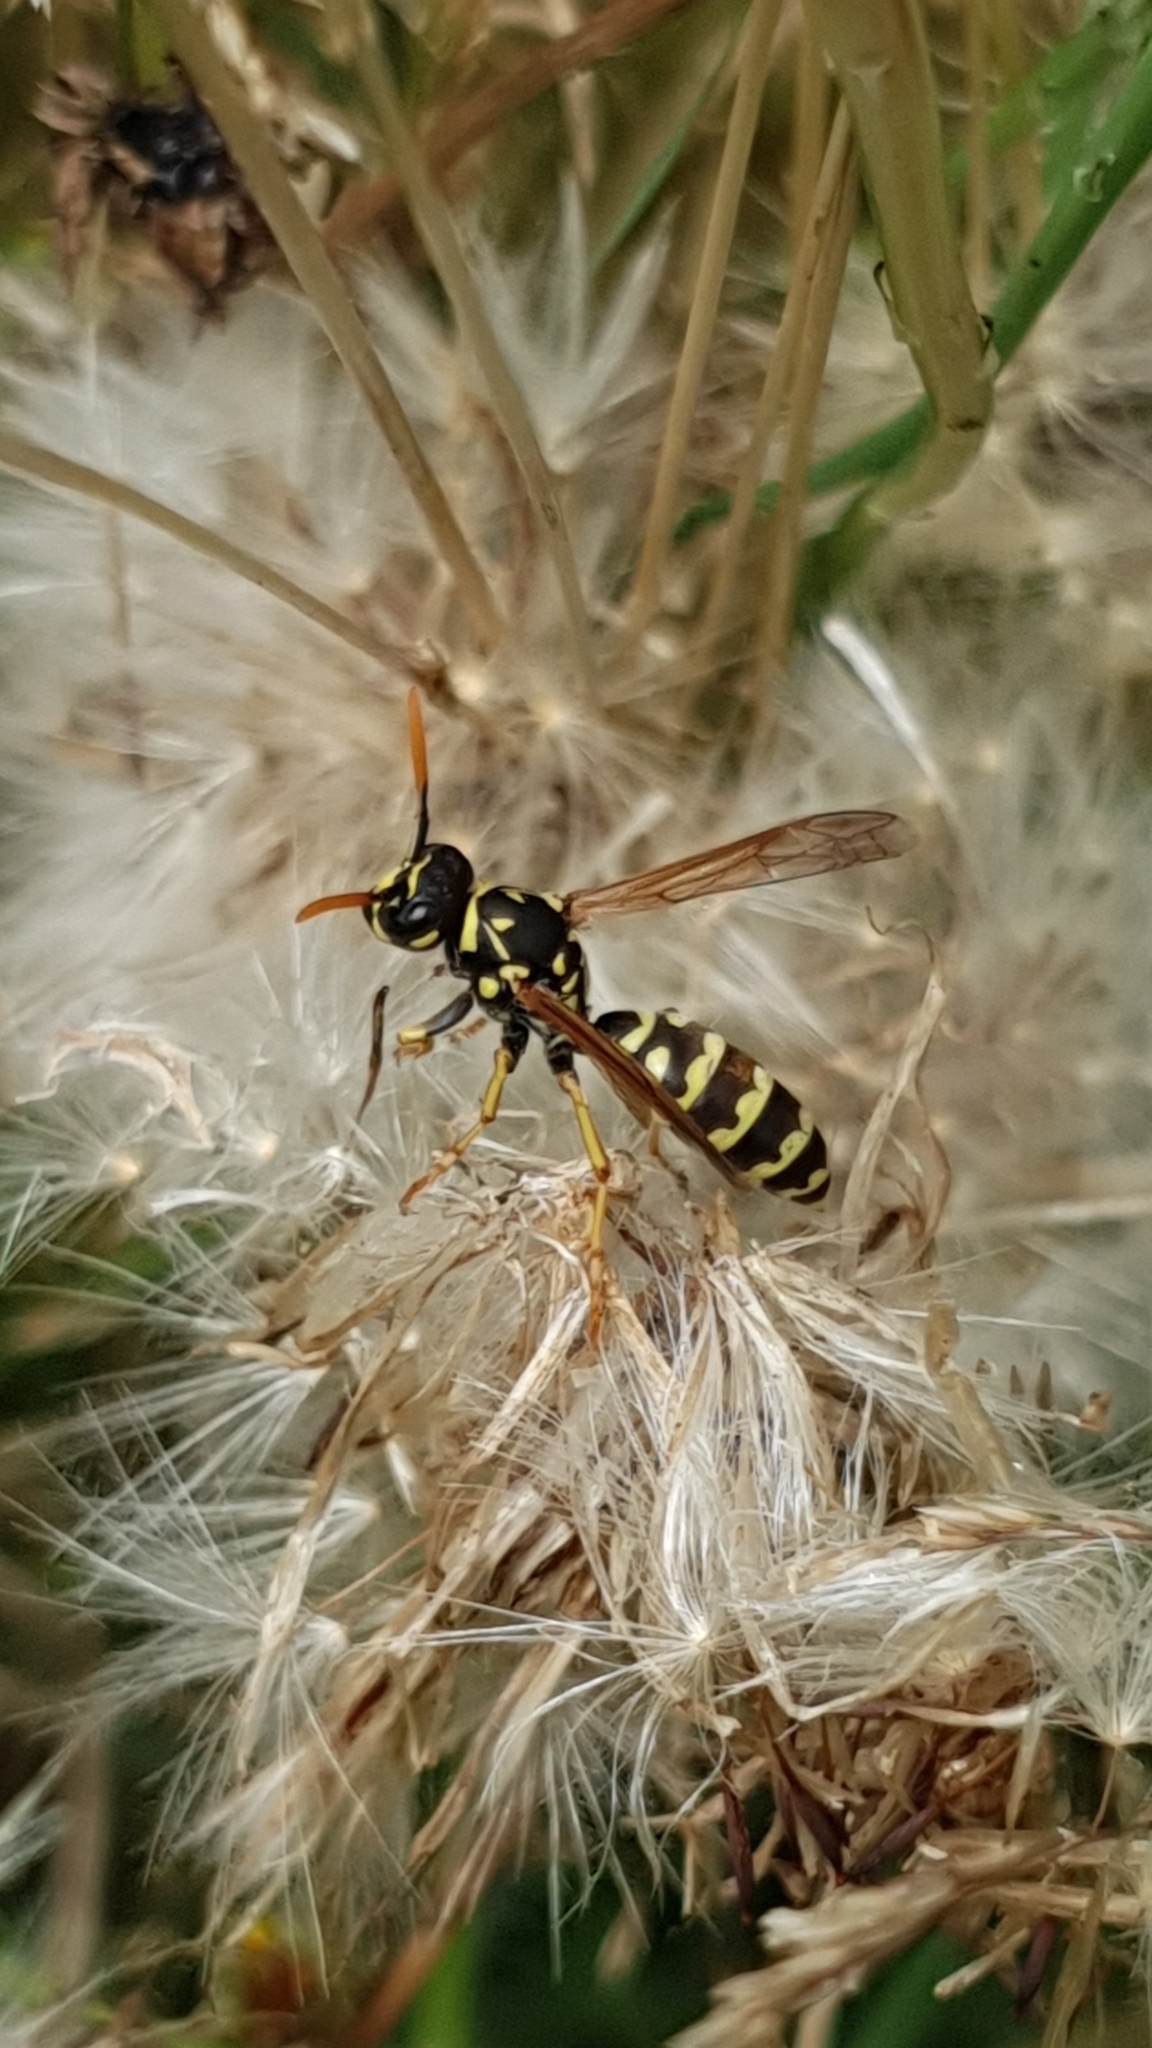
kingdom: Animalia
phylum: Arthropoda
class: Insecta
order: Hymenoptera
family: Eumenidae
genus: Polistes
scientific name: Polistes dominula
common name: Paper wasp
